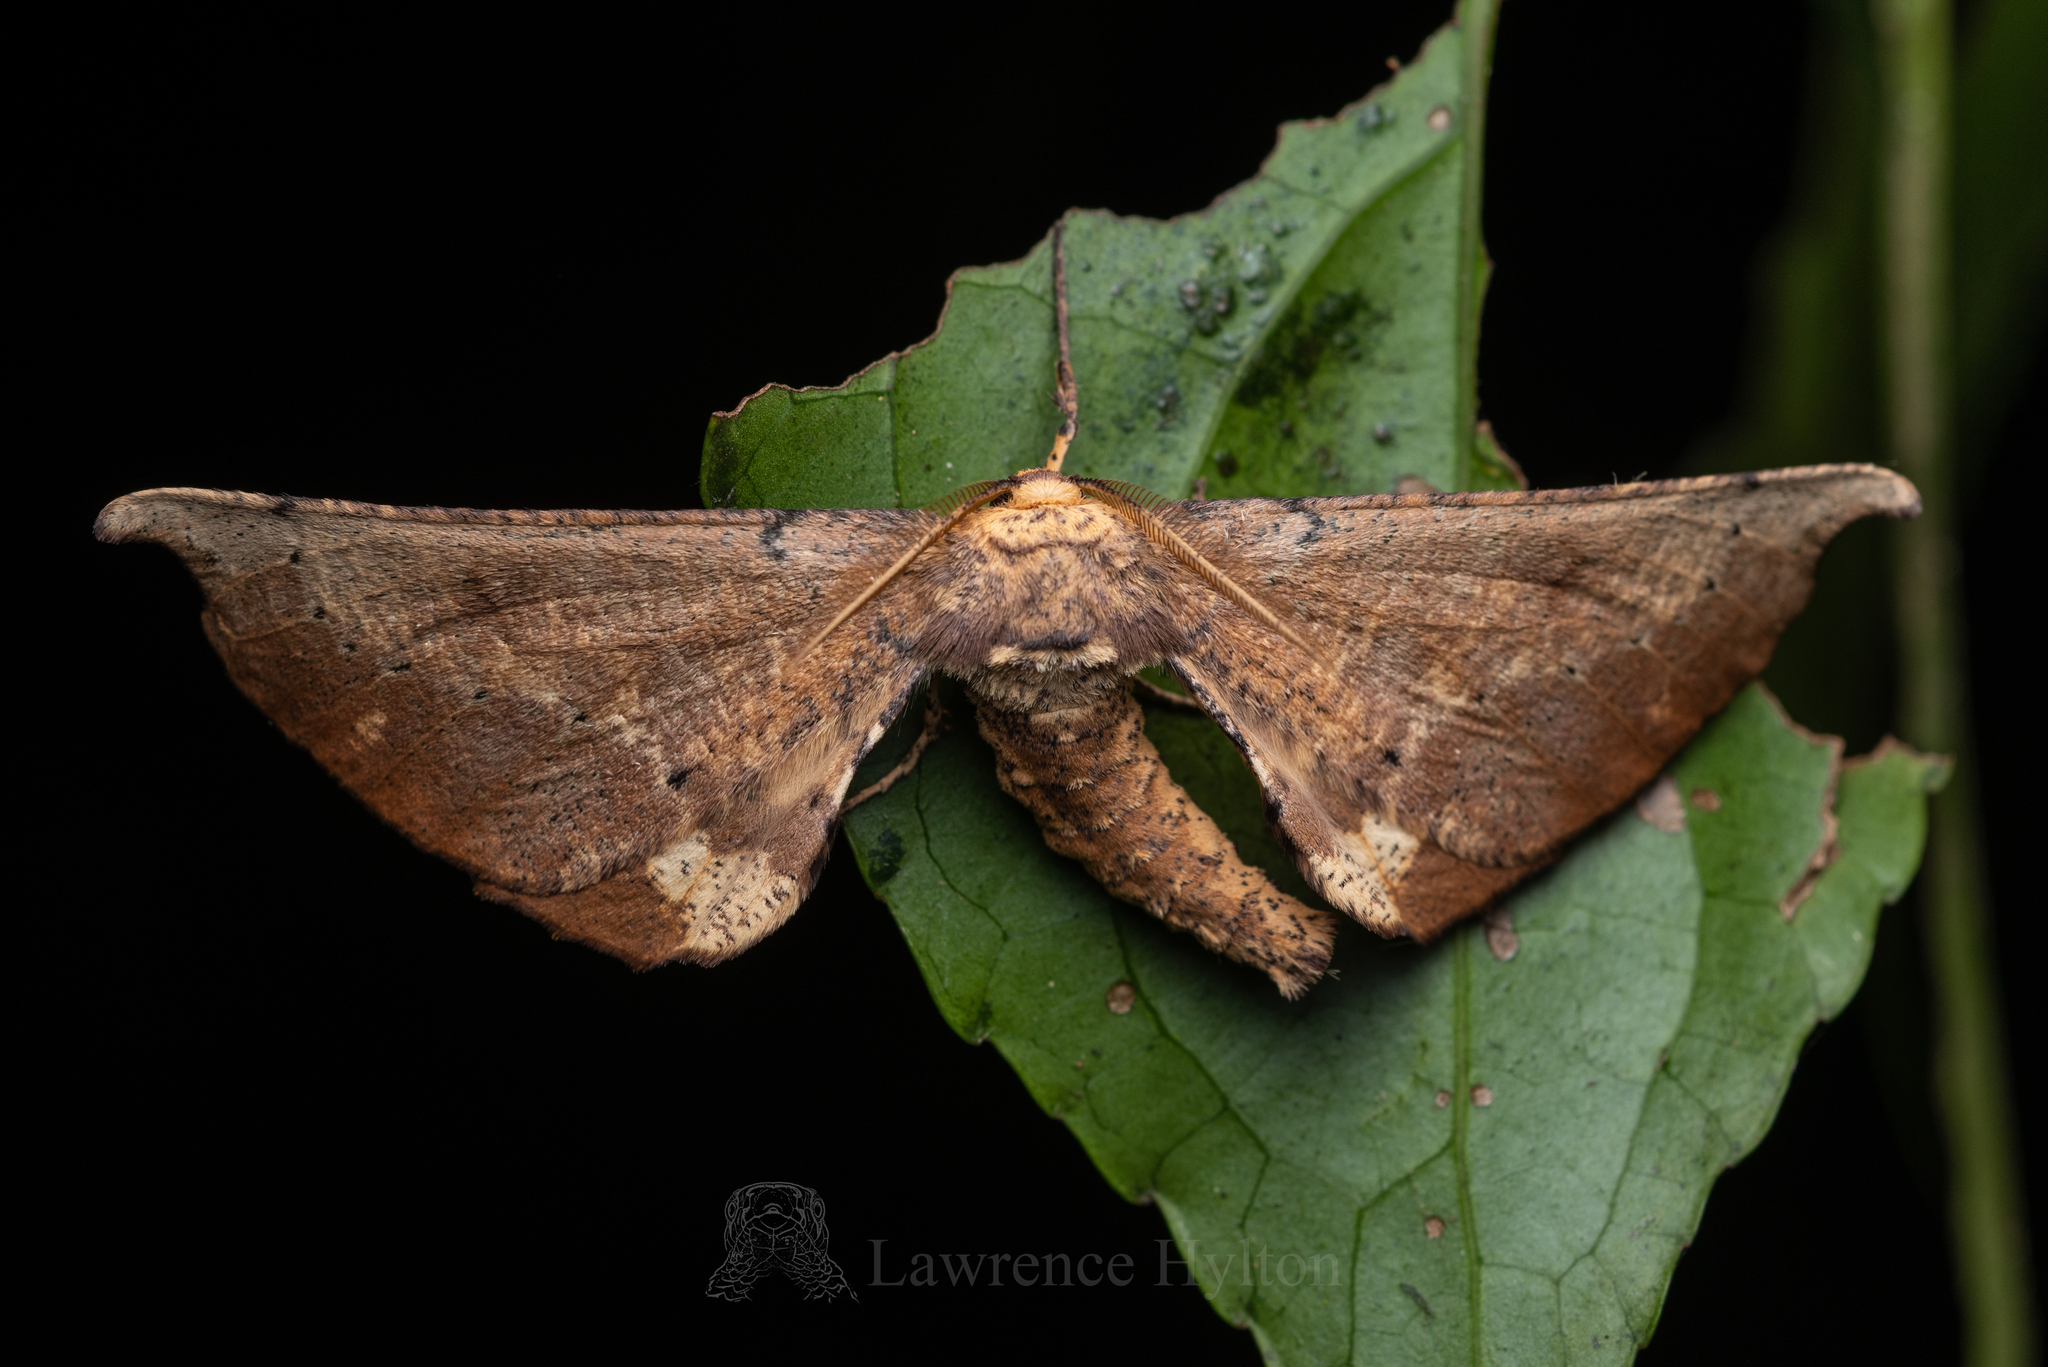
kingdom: Animalia
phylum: Arthropoda
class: Insecta
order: Lepidoptera
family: Geometridae
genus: Acrodontis
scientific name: Acrodontis aenigma
